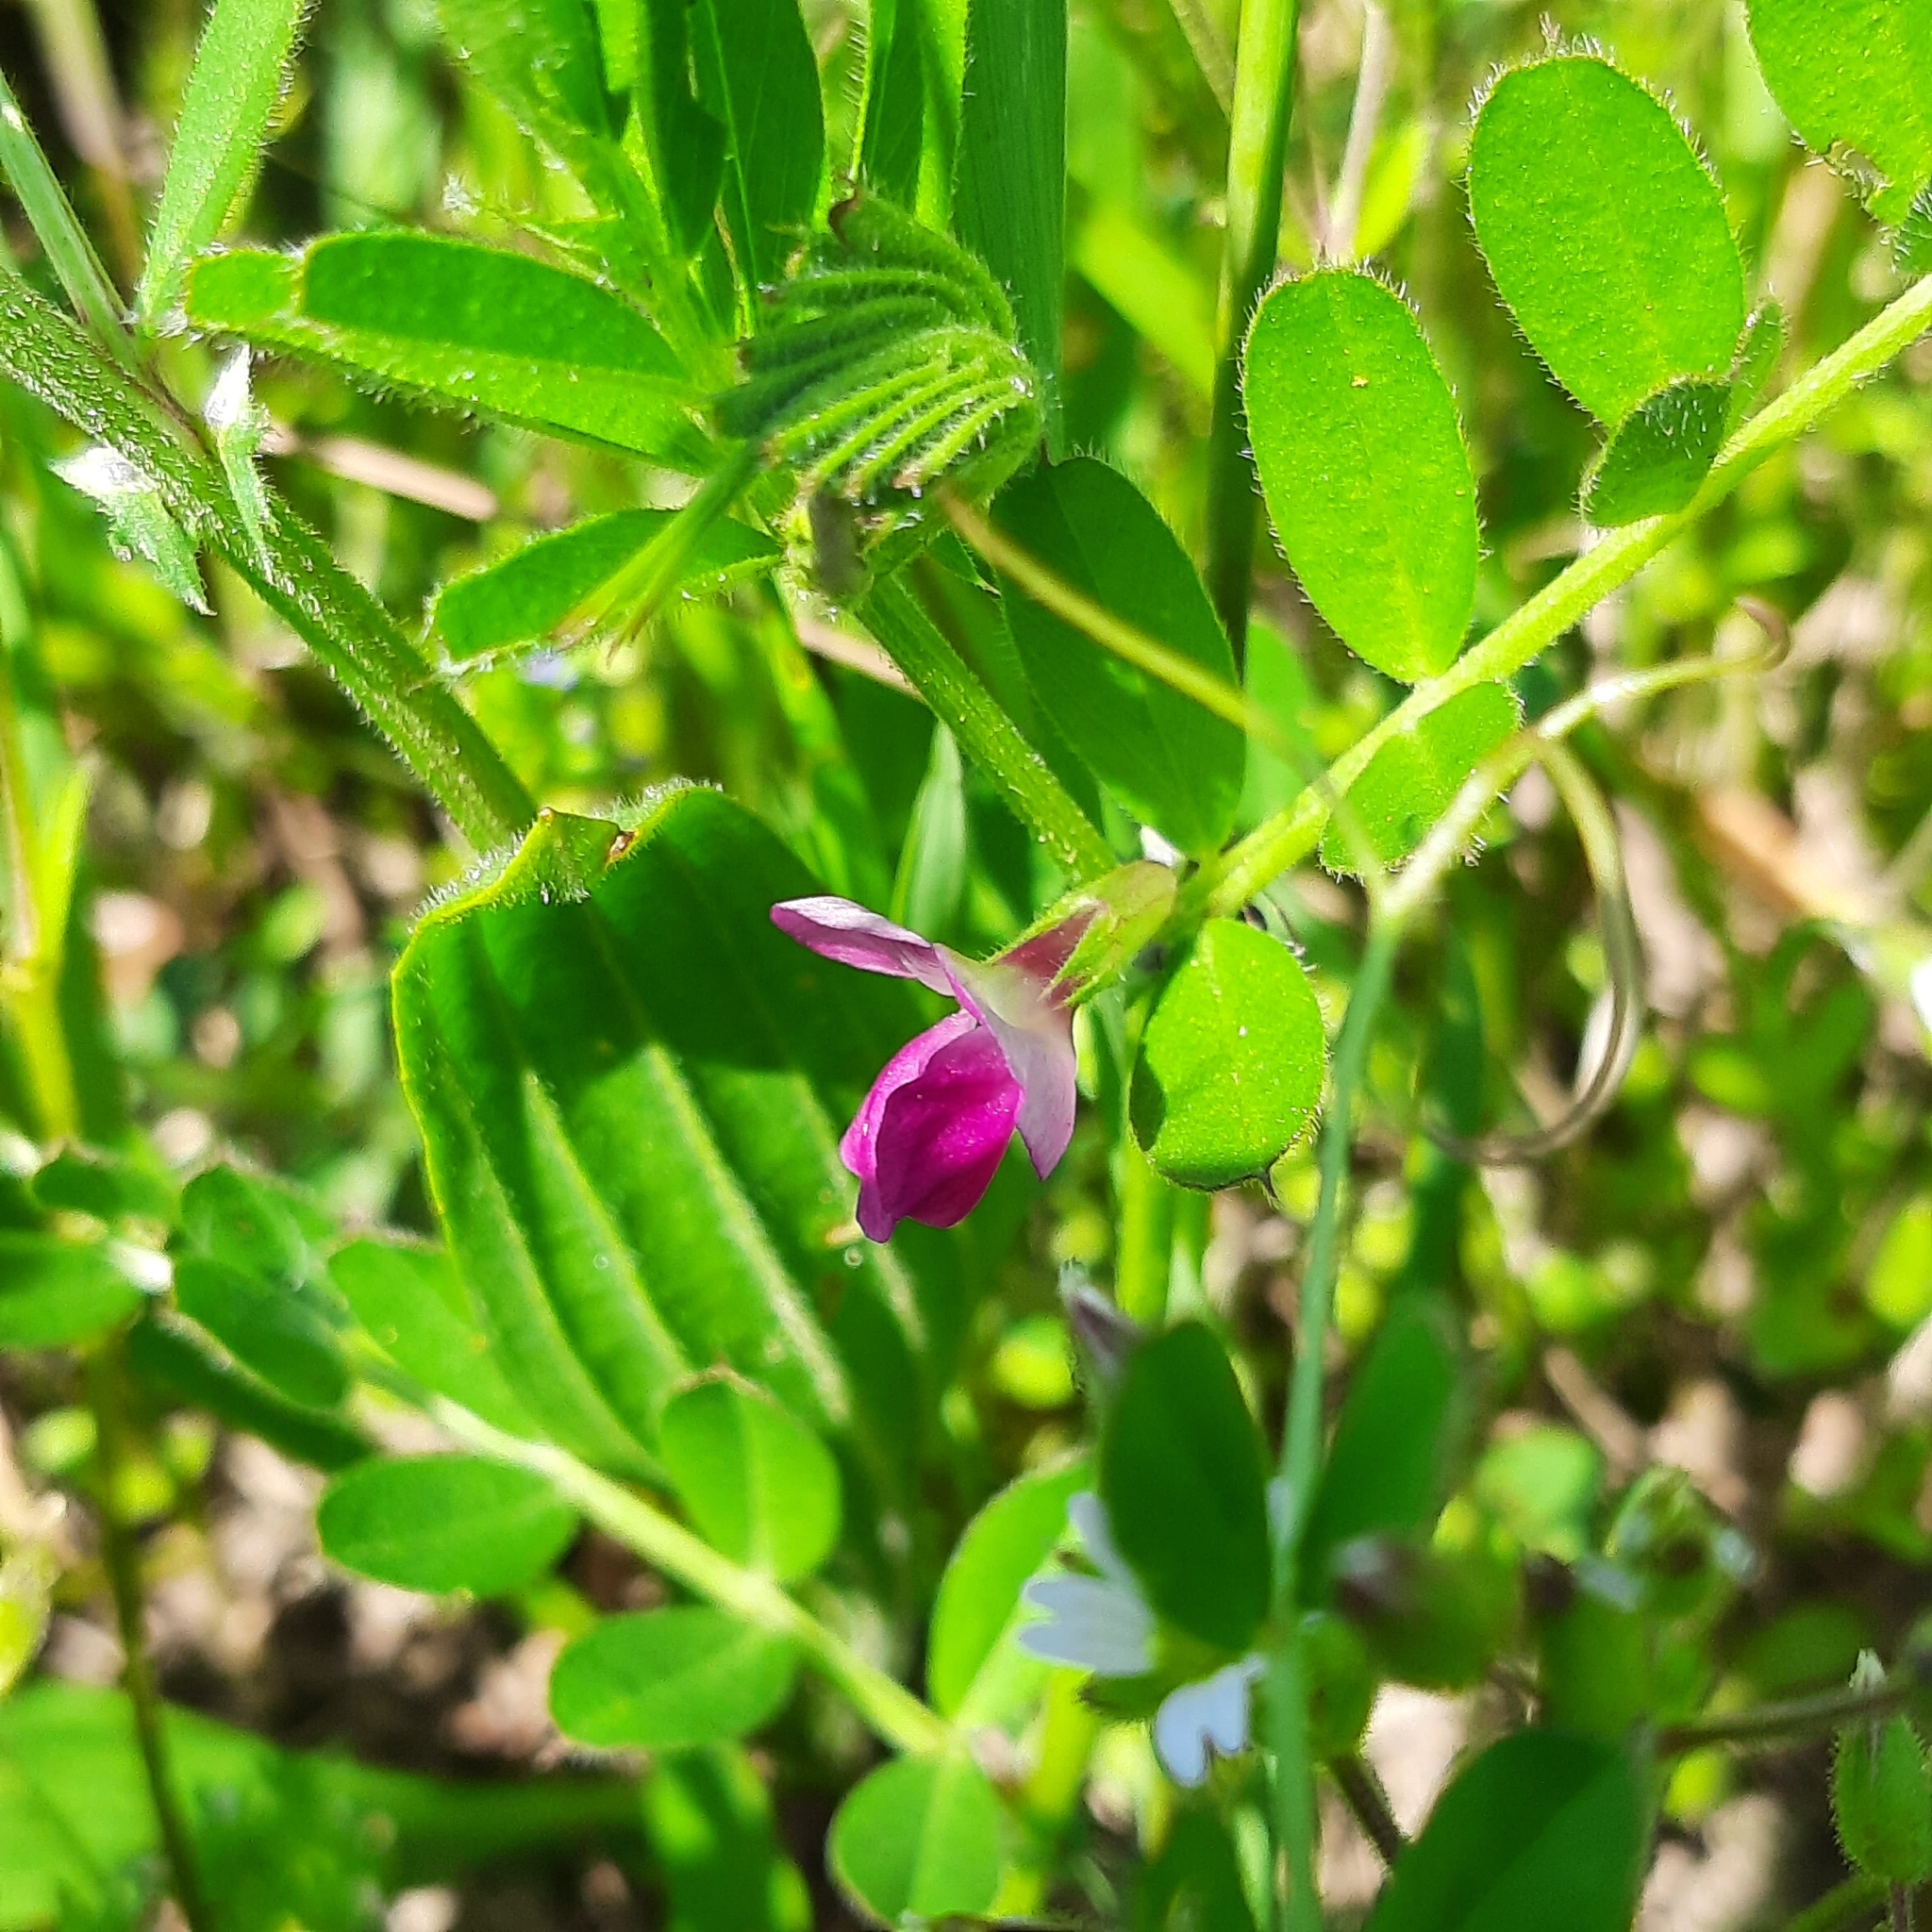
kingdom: Plantae
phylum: Tracheophyta
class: Magnoliopsida
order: Fabales
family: Fabaceae
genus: Vicia
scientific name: Vicia sativa
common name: Garden vetch
